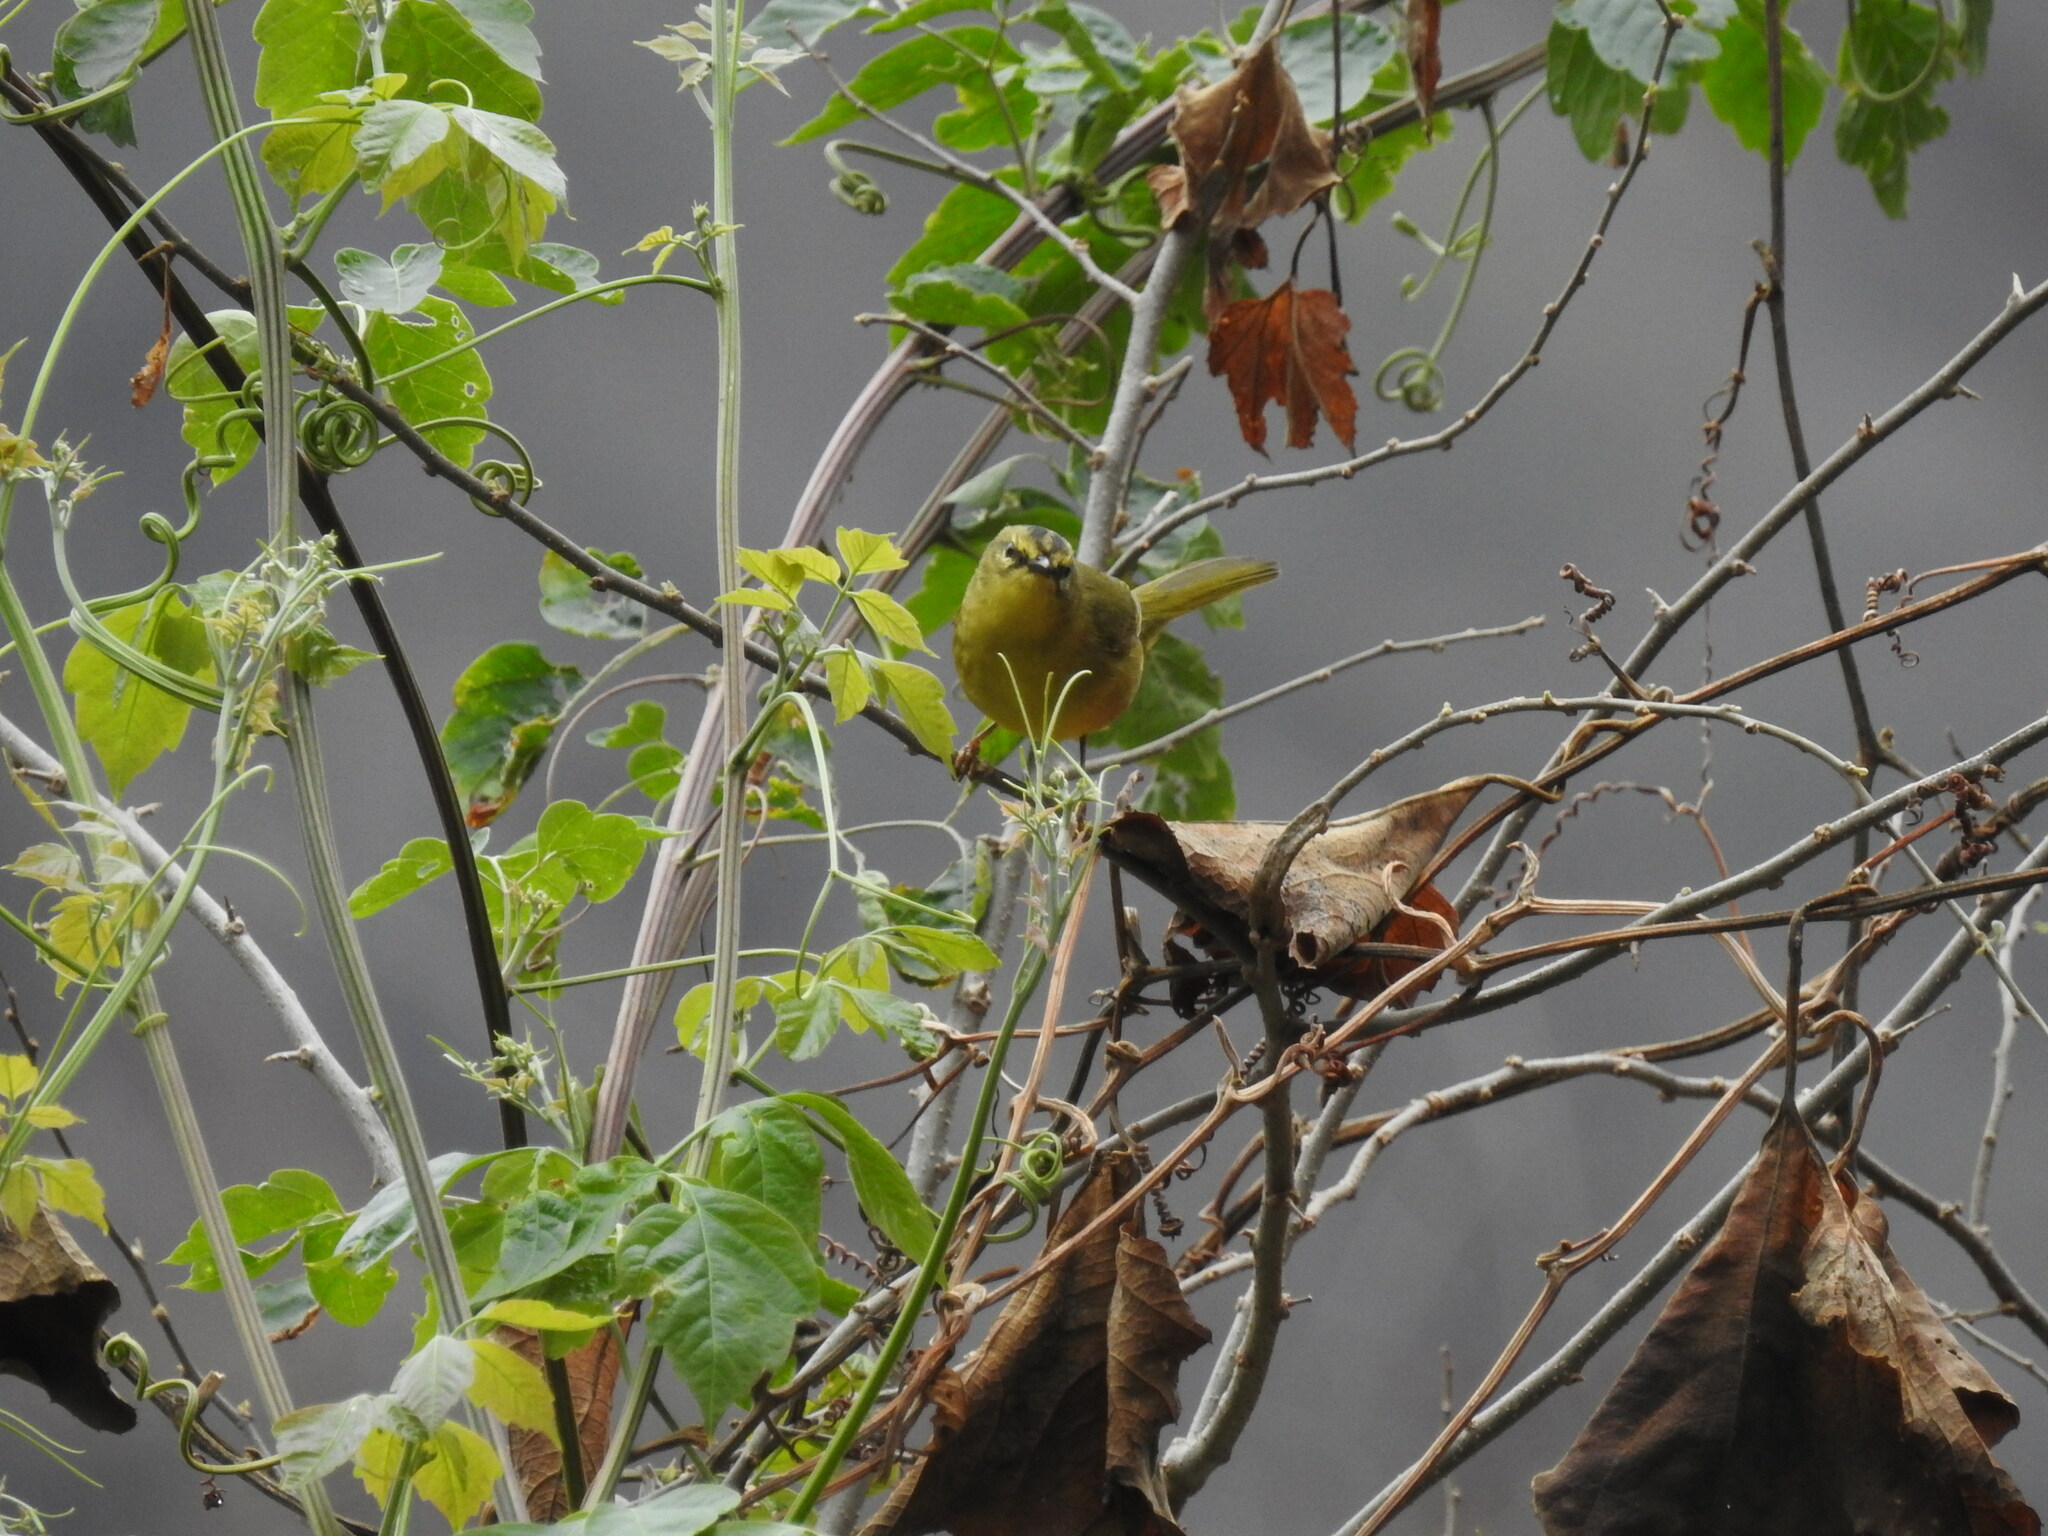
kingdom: Animalia
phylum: Chordata
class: Aves
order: Passeriformes
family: Parulidae
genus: Myiothlypis
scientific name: Myiothlypis bivittata
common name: Two-banded warbler
